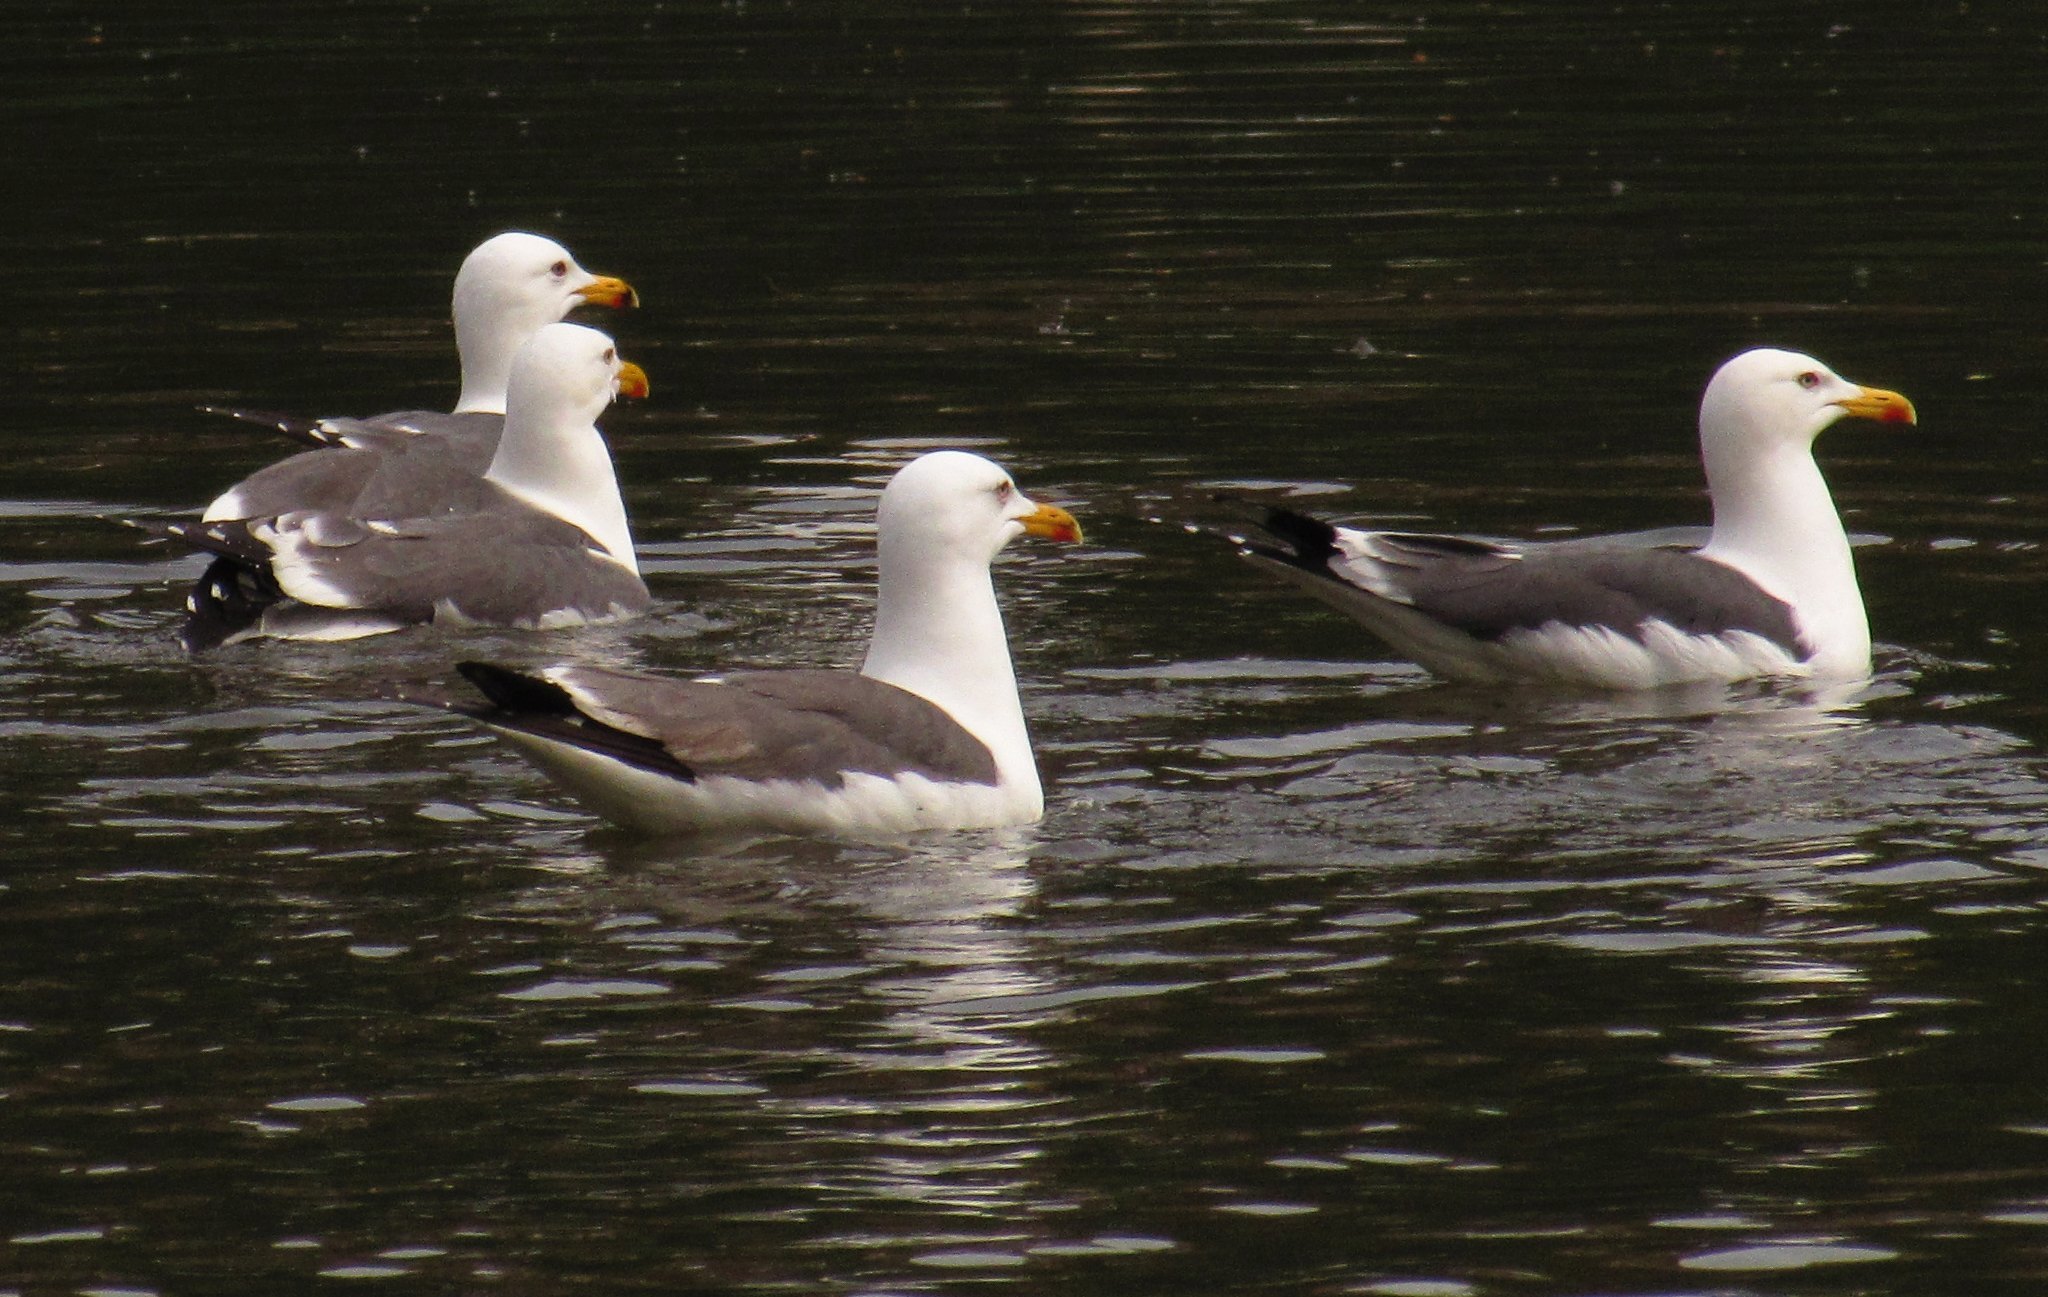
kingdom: Animalia
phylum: Chordata
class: Aves
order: Charadriiformes
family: Laridae
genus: Larus
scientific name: Larus fuscus
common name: Lesser black-backed gull
